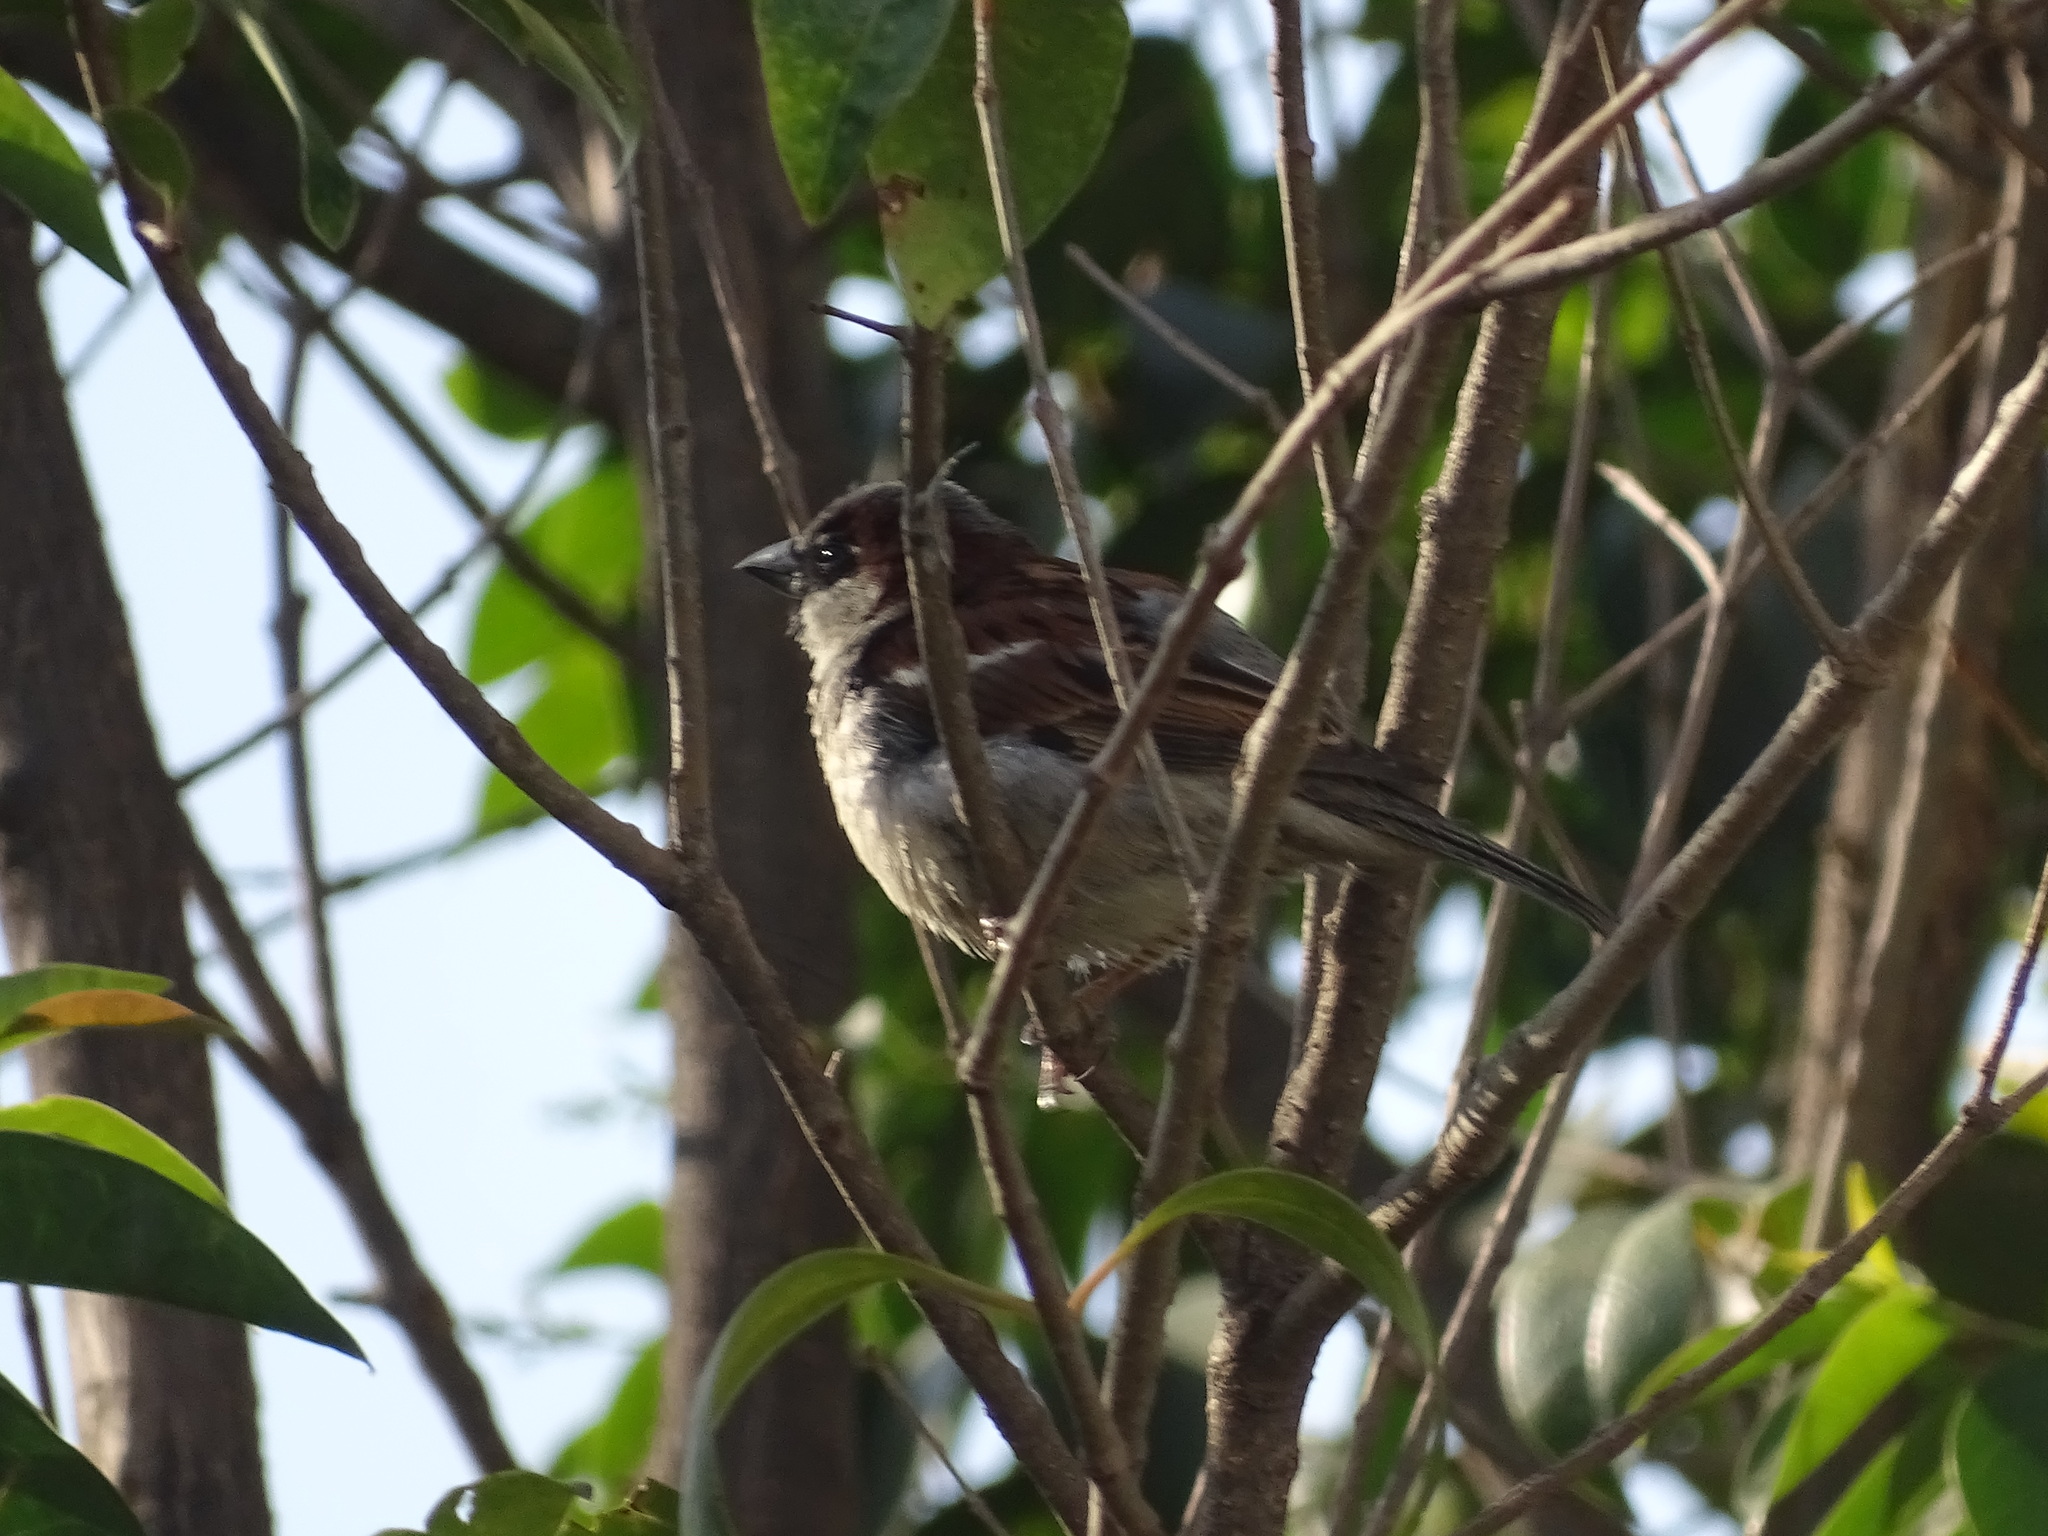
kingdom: Animalia
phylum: Chordata
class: Aves
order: Passeriformes
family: Passeridae
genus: Passer
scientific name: Passer domesticus
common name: House sparrow
